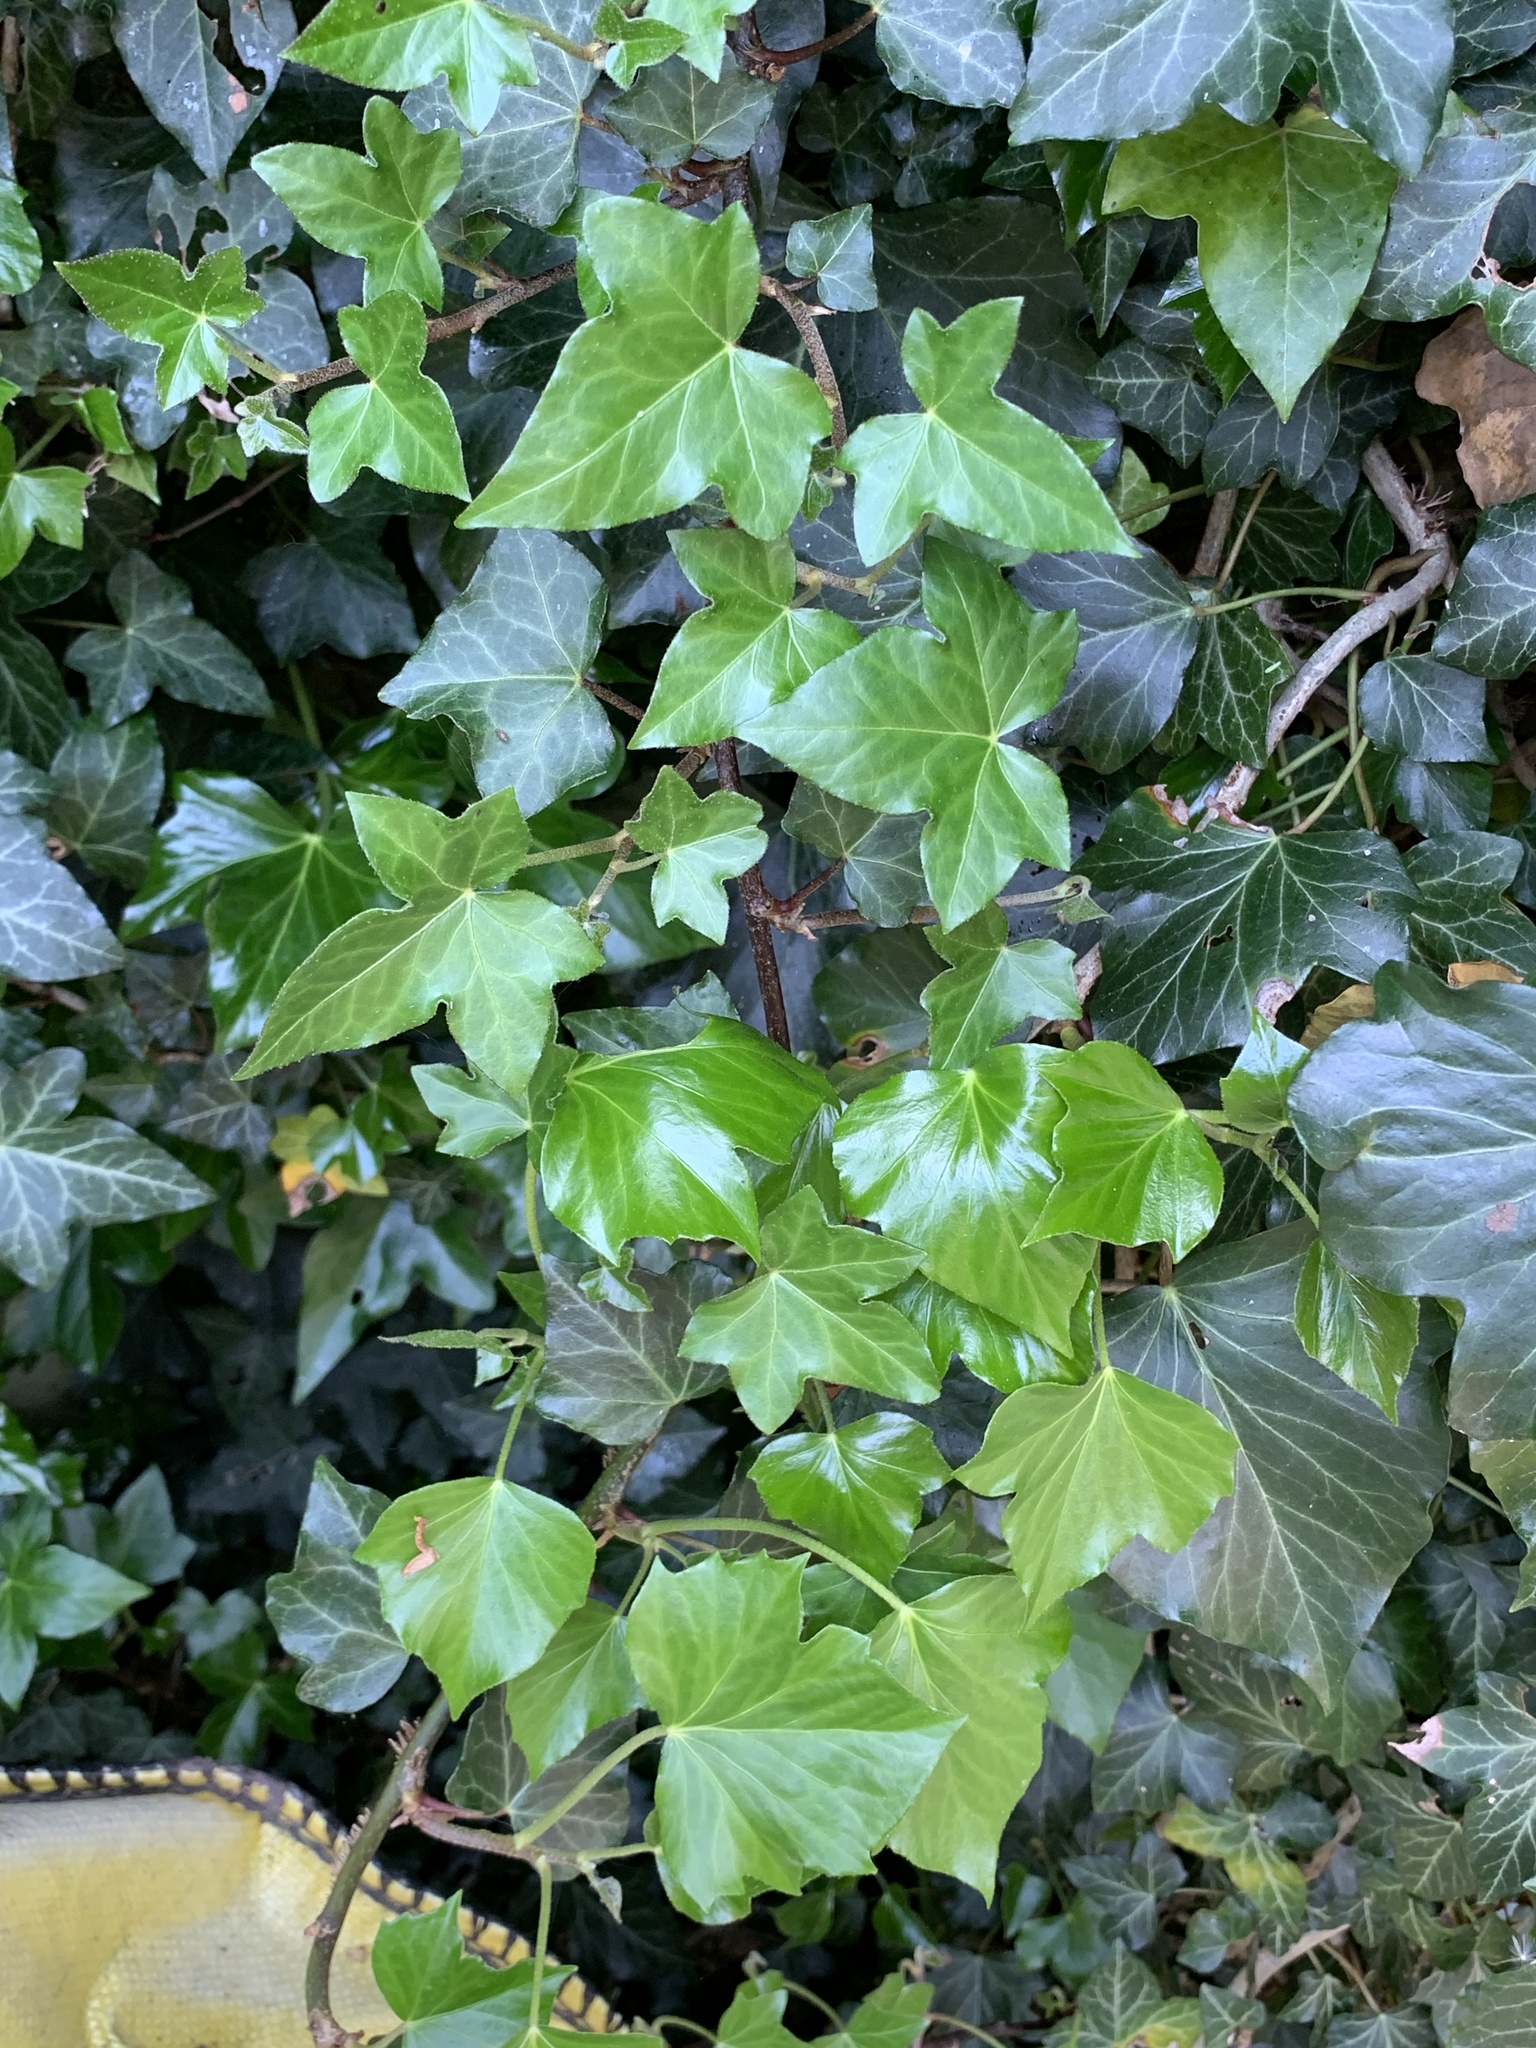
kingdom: Plantae
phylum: Tracheophyta
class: Magnoliopsida
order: Apiales
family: Araliaceae
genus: Hedera
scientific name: Hedera helix
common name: Ivy
